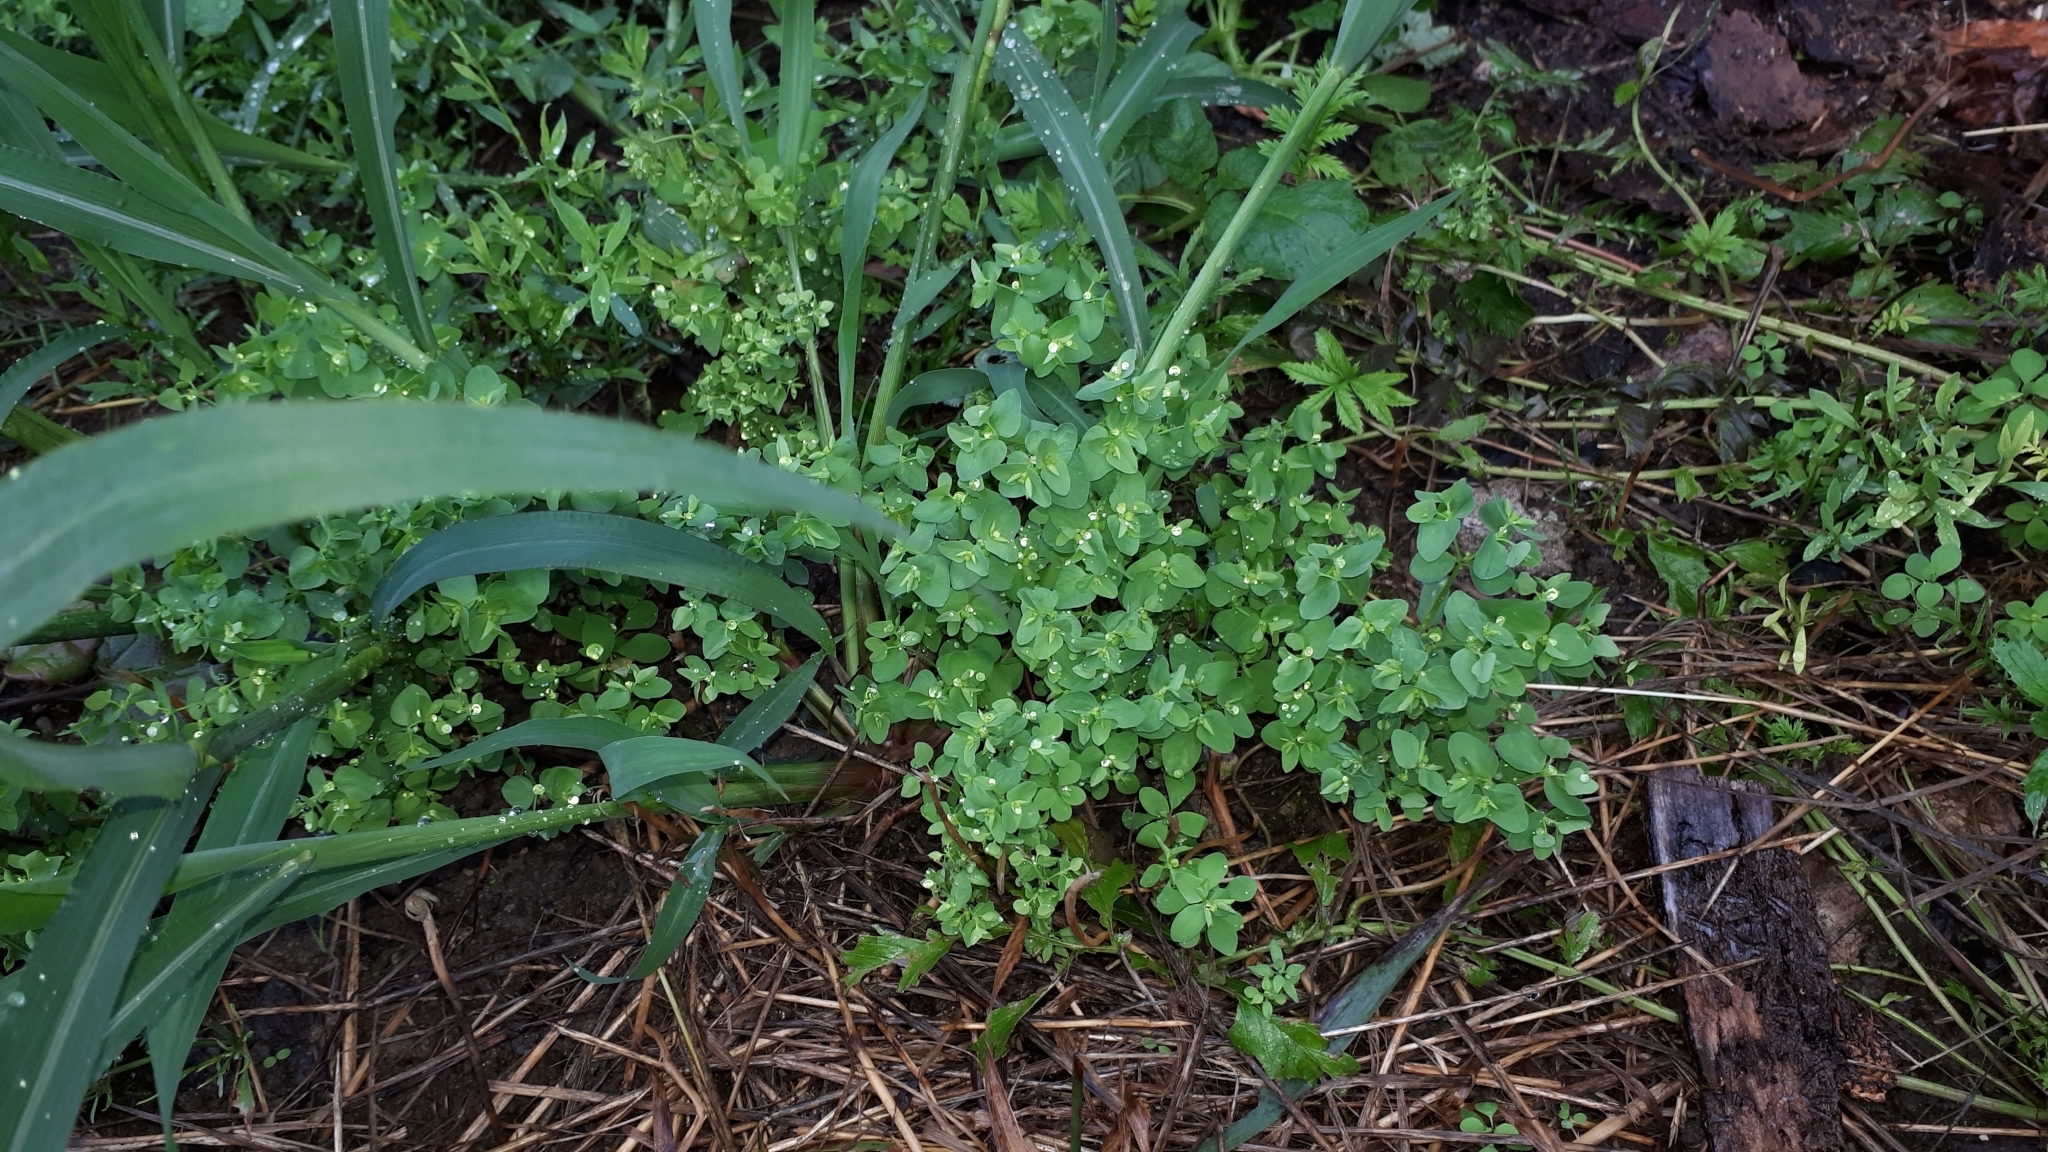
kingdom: Plantae
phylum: Tracheophyta
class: Magnoliopsida
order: Malpighiales
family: Euphorbiaceae
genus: Euphorbia
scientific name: Euphorbia peplus
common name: Petty spurge
